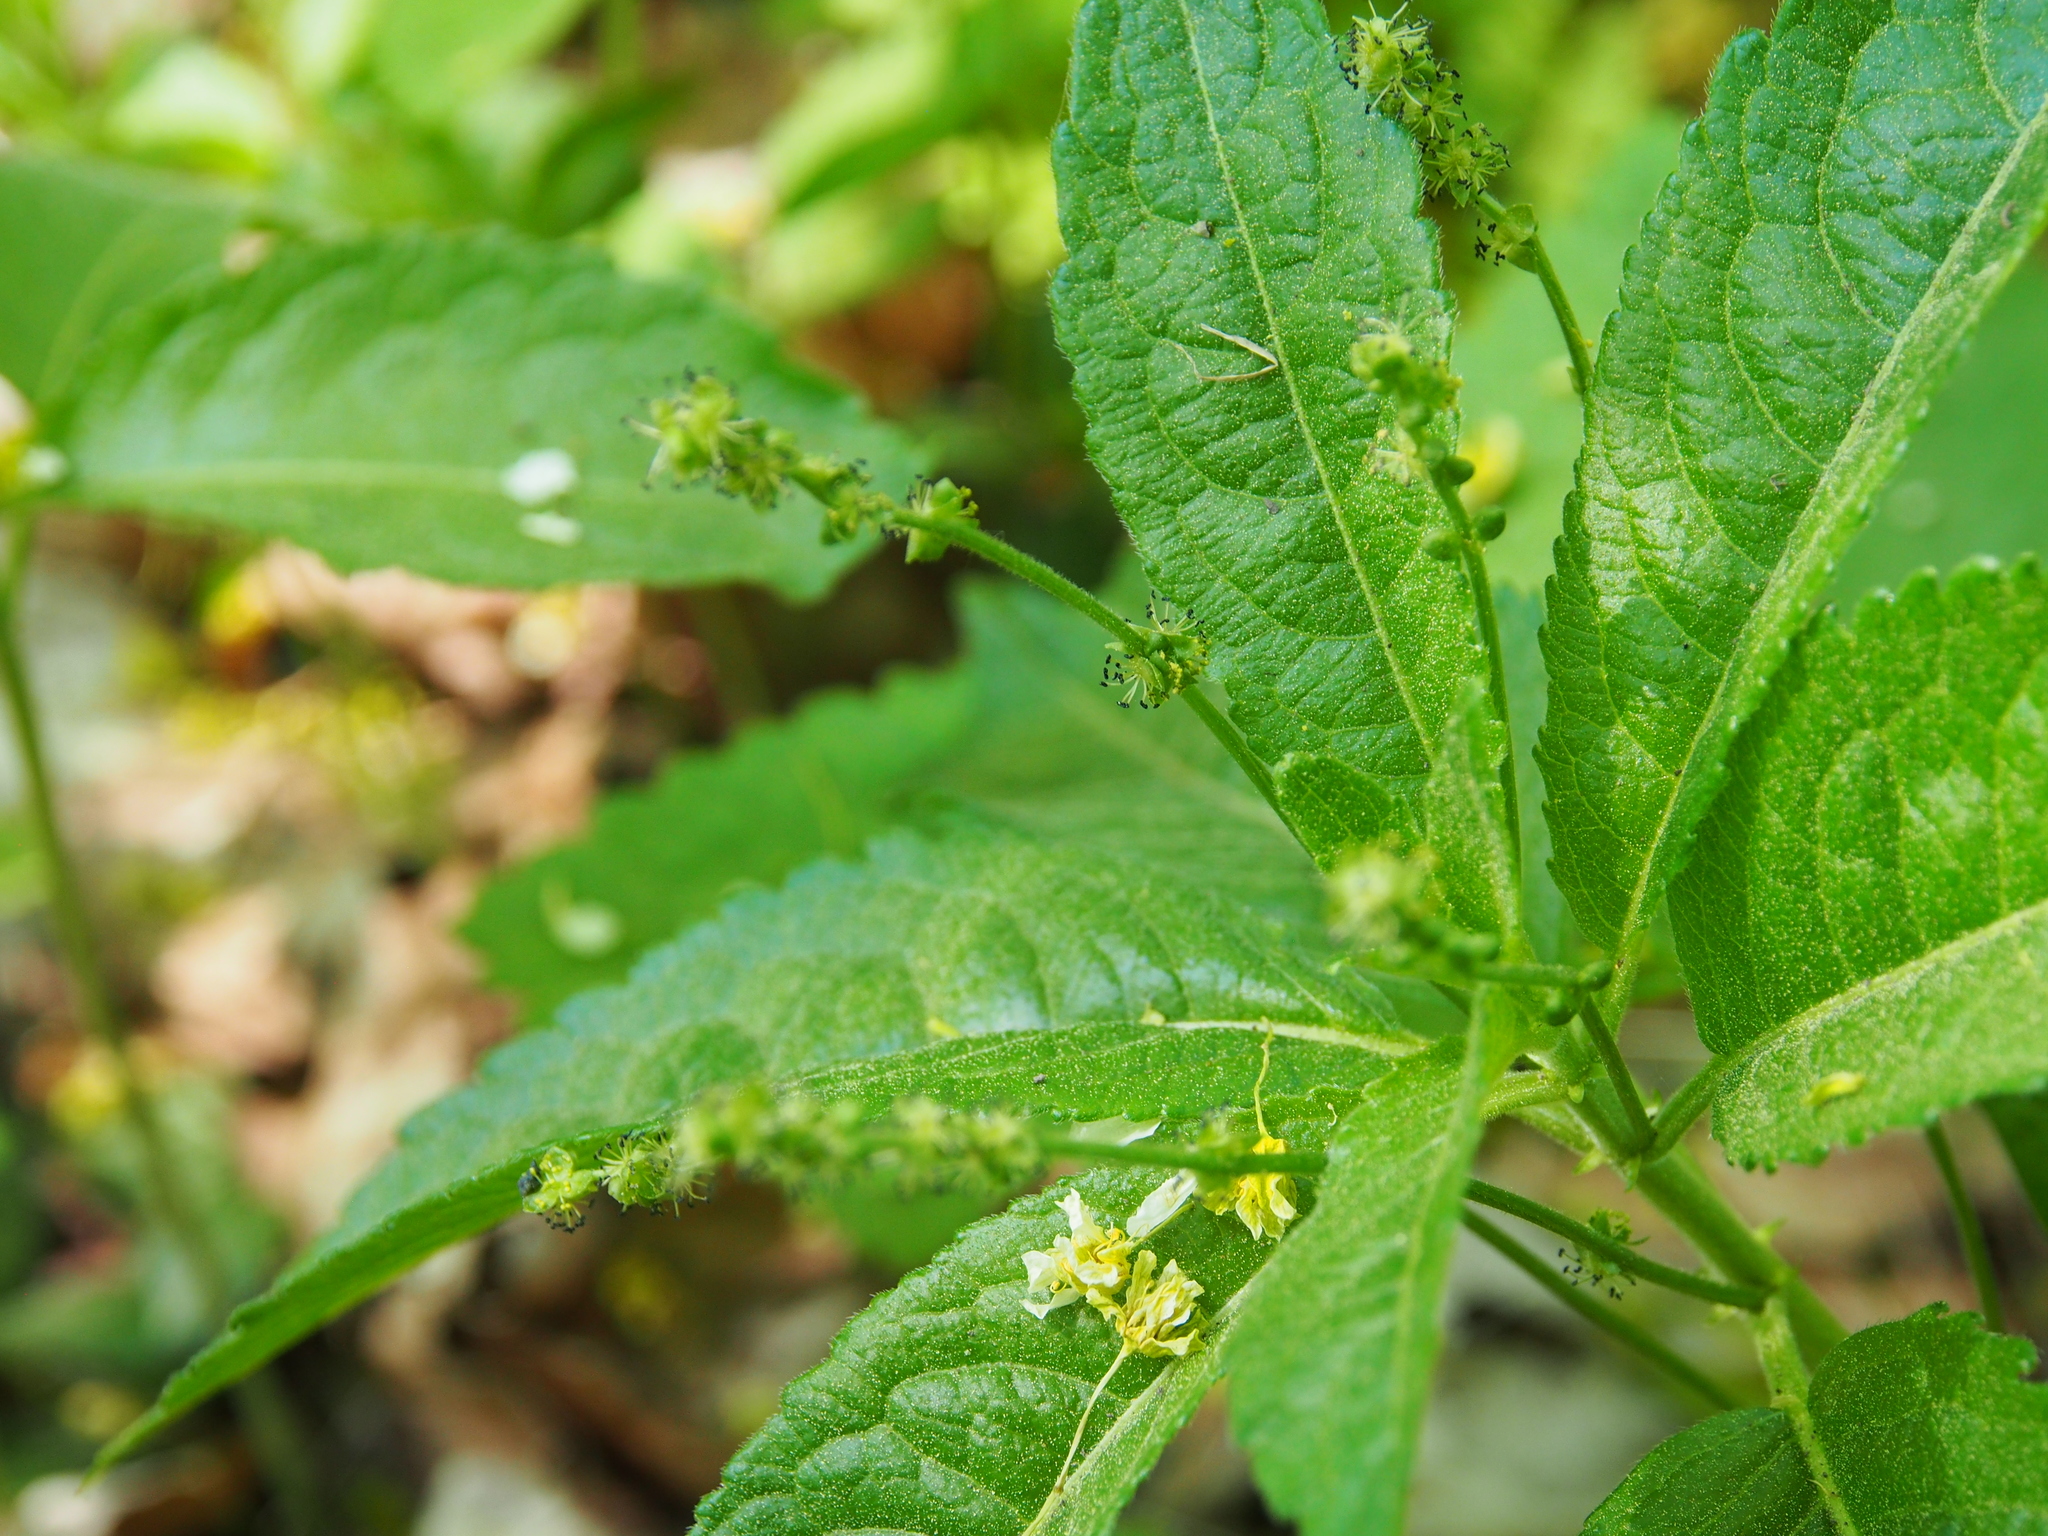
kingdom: Plantae
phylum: Tracheophyta
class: Magnoliopsida
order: Malpighiales
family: Euphorbiaceae
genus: Mercurialis
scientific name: Mercurialis perennis
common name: Dog mercury
